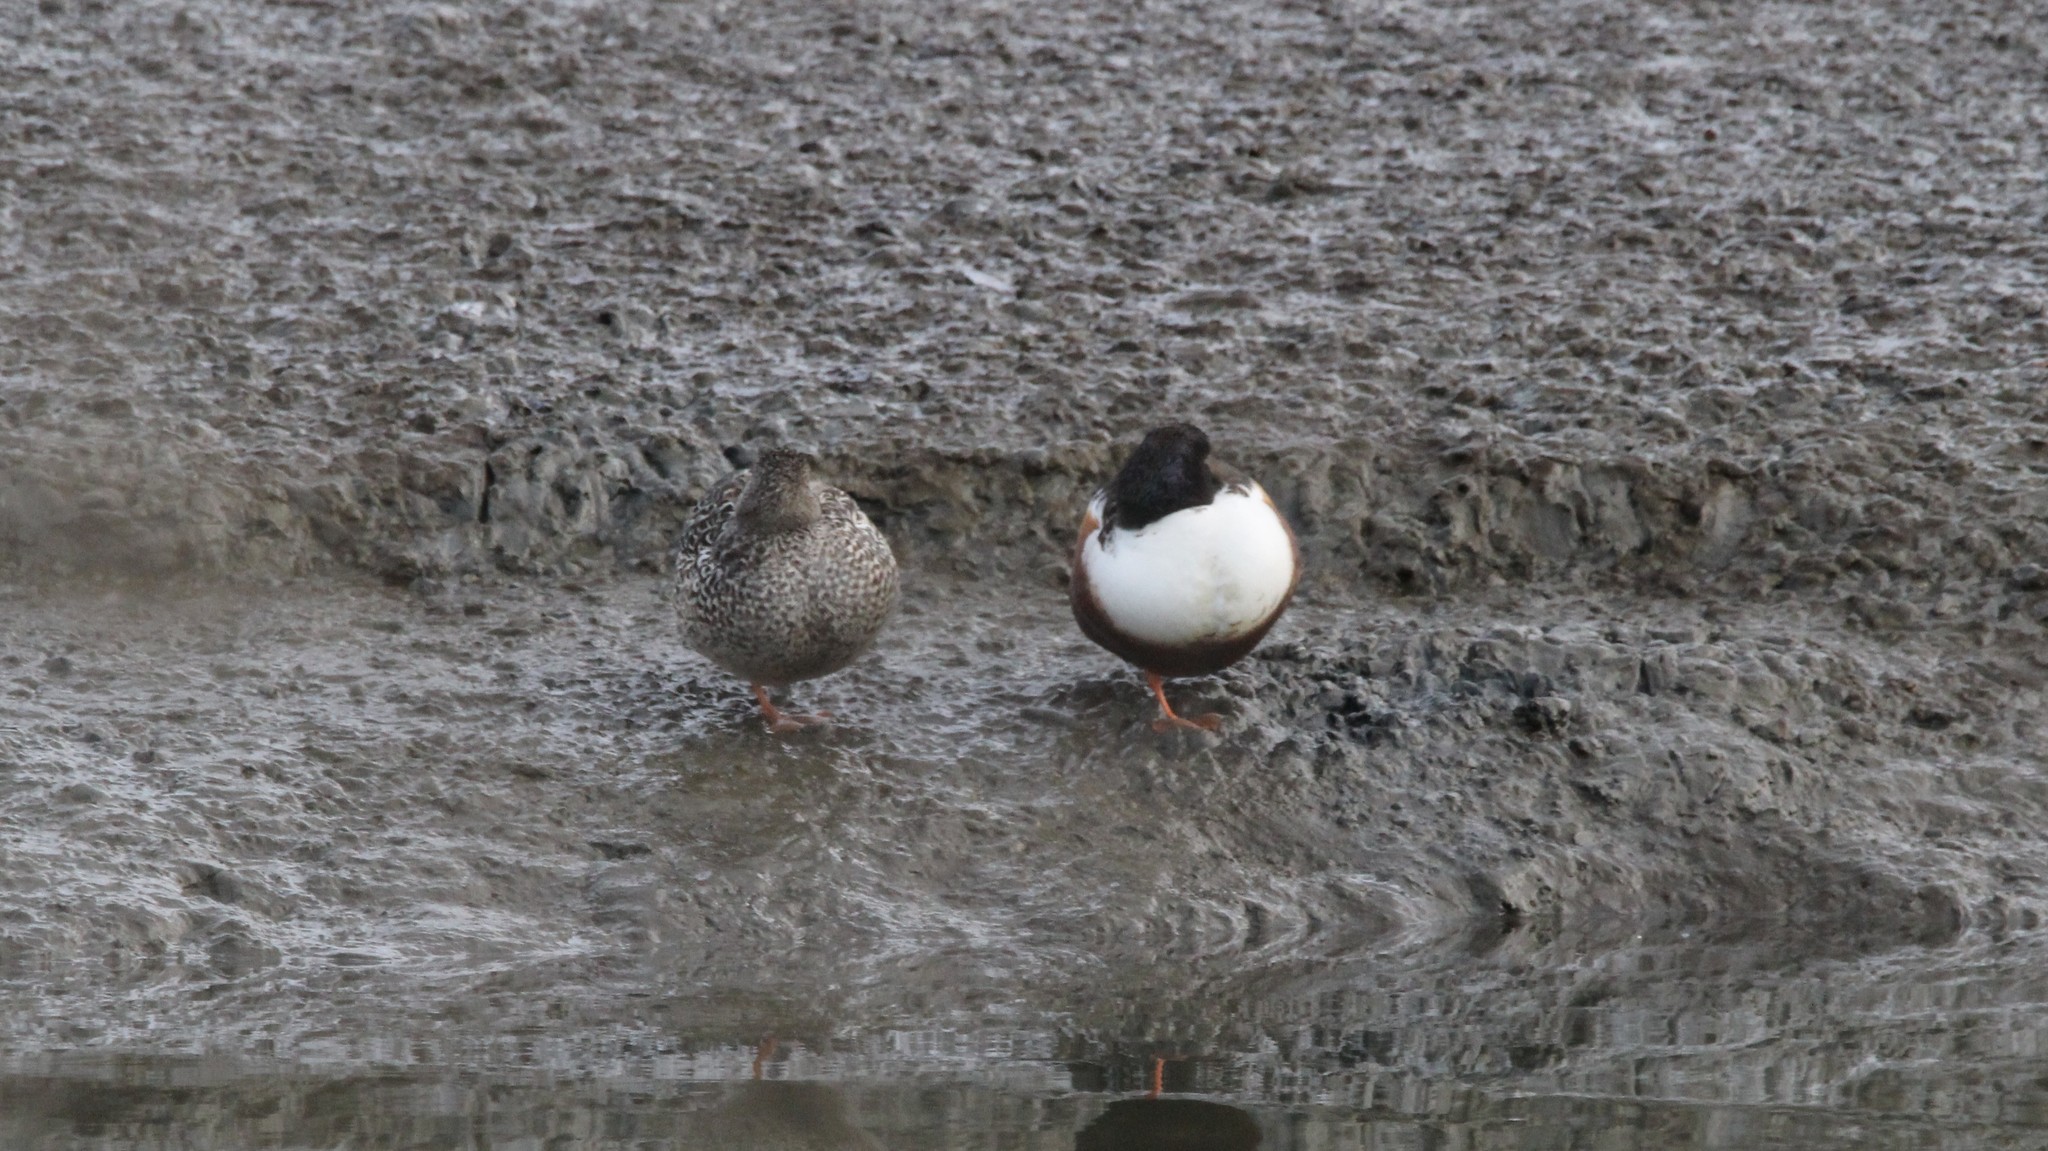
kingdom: Animalia
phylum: Chordata
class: Aves
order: Anseriformes
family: Anatidae
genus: Spatula
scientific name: Spatula clypeata
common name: Northern shoveler
